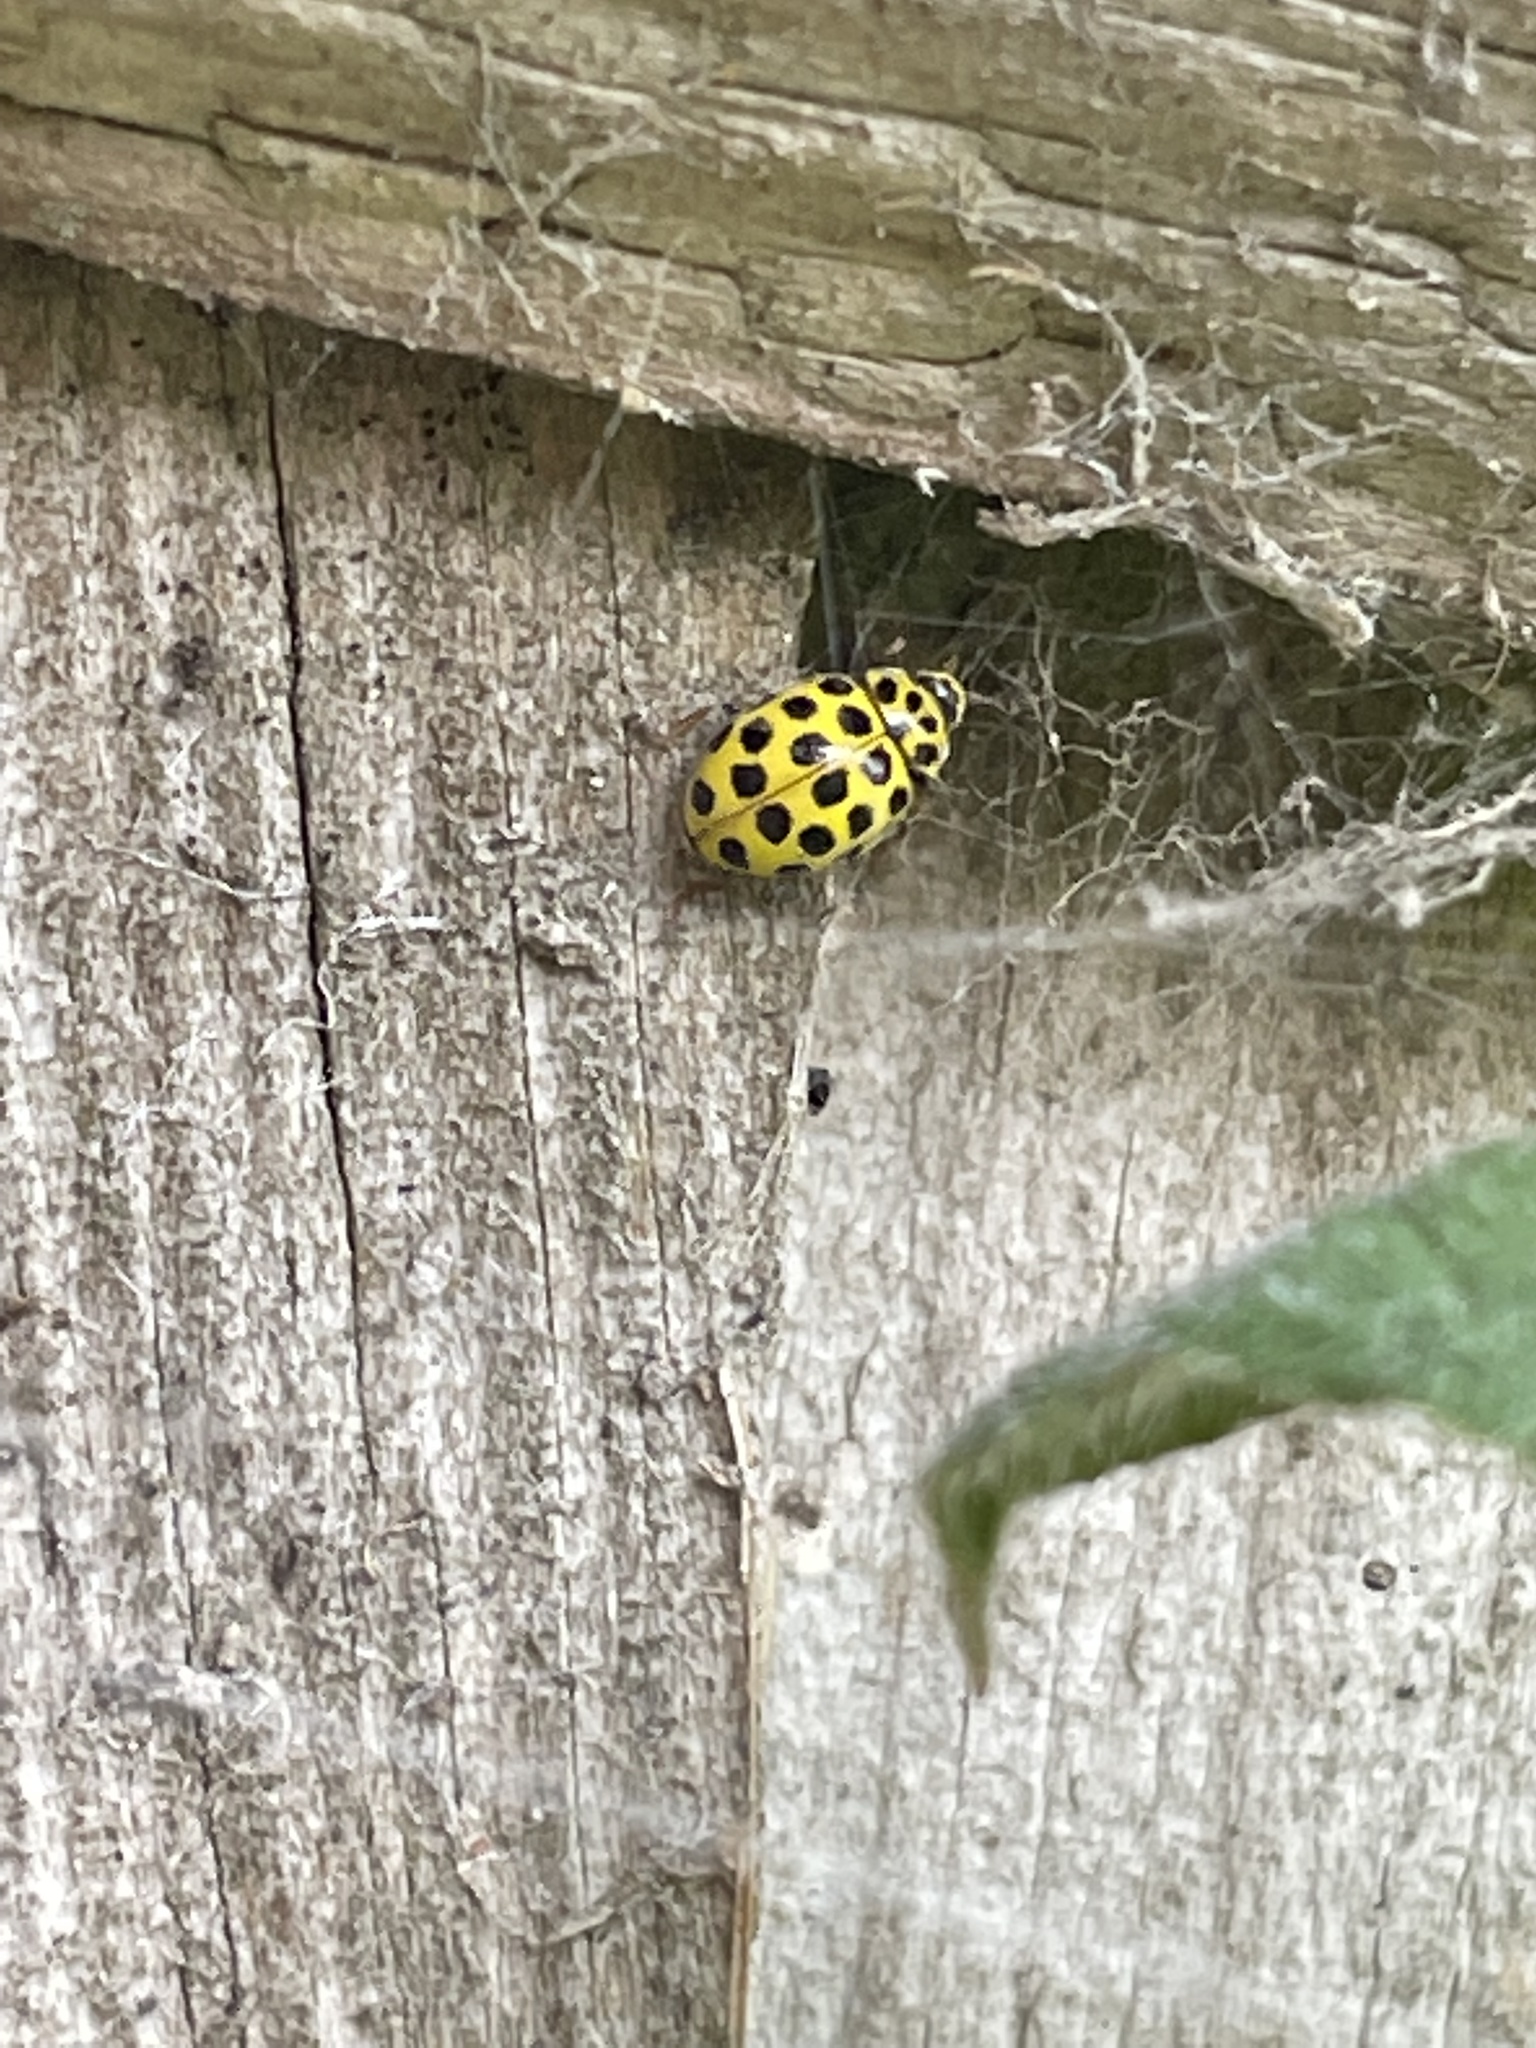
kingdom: Animalia
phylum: Arthropoda
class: Insecta
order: Coleoptera
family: Coccinellidae
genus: Psyllobora
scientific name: Psyllobora vigintiduopunctata
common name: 22-spot ladybird
